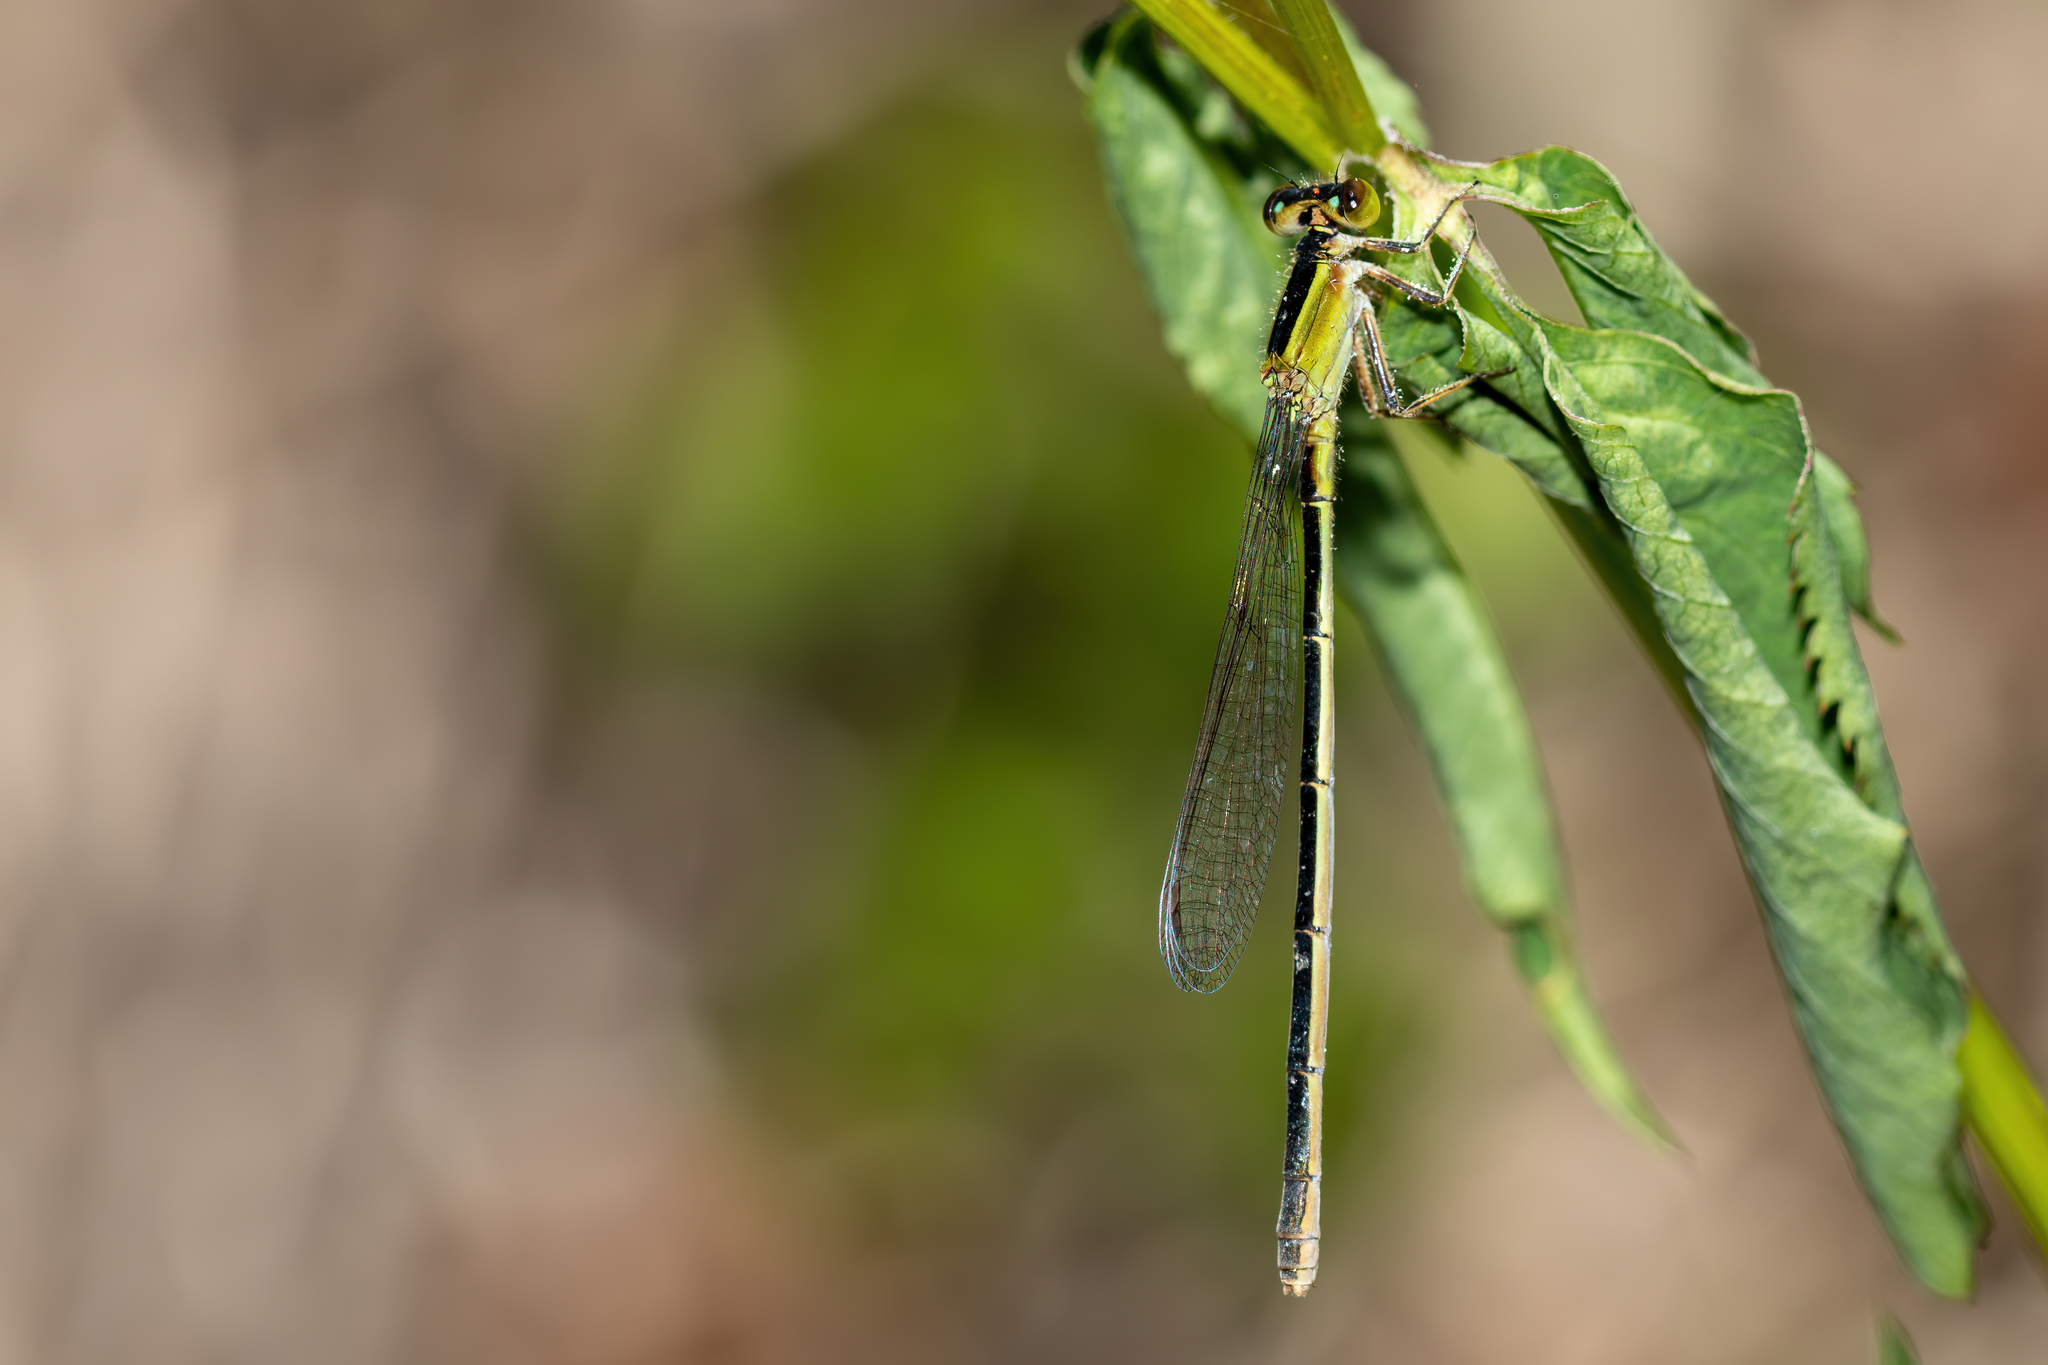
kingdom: Animalia
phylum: Arthropoda
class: Insecta
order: Odonata
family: Coenagrionidae
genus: Ischnura
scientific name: Ischnura ramburii
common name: Rambur's forktail
